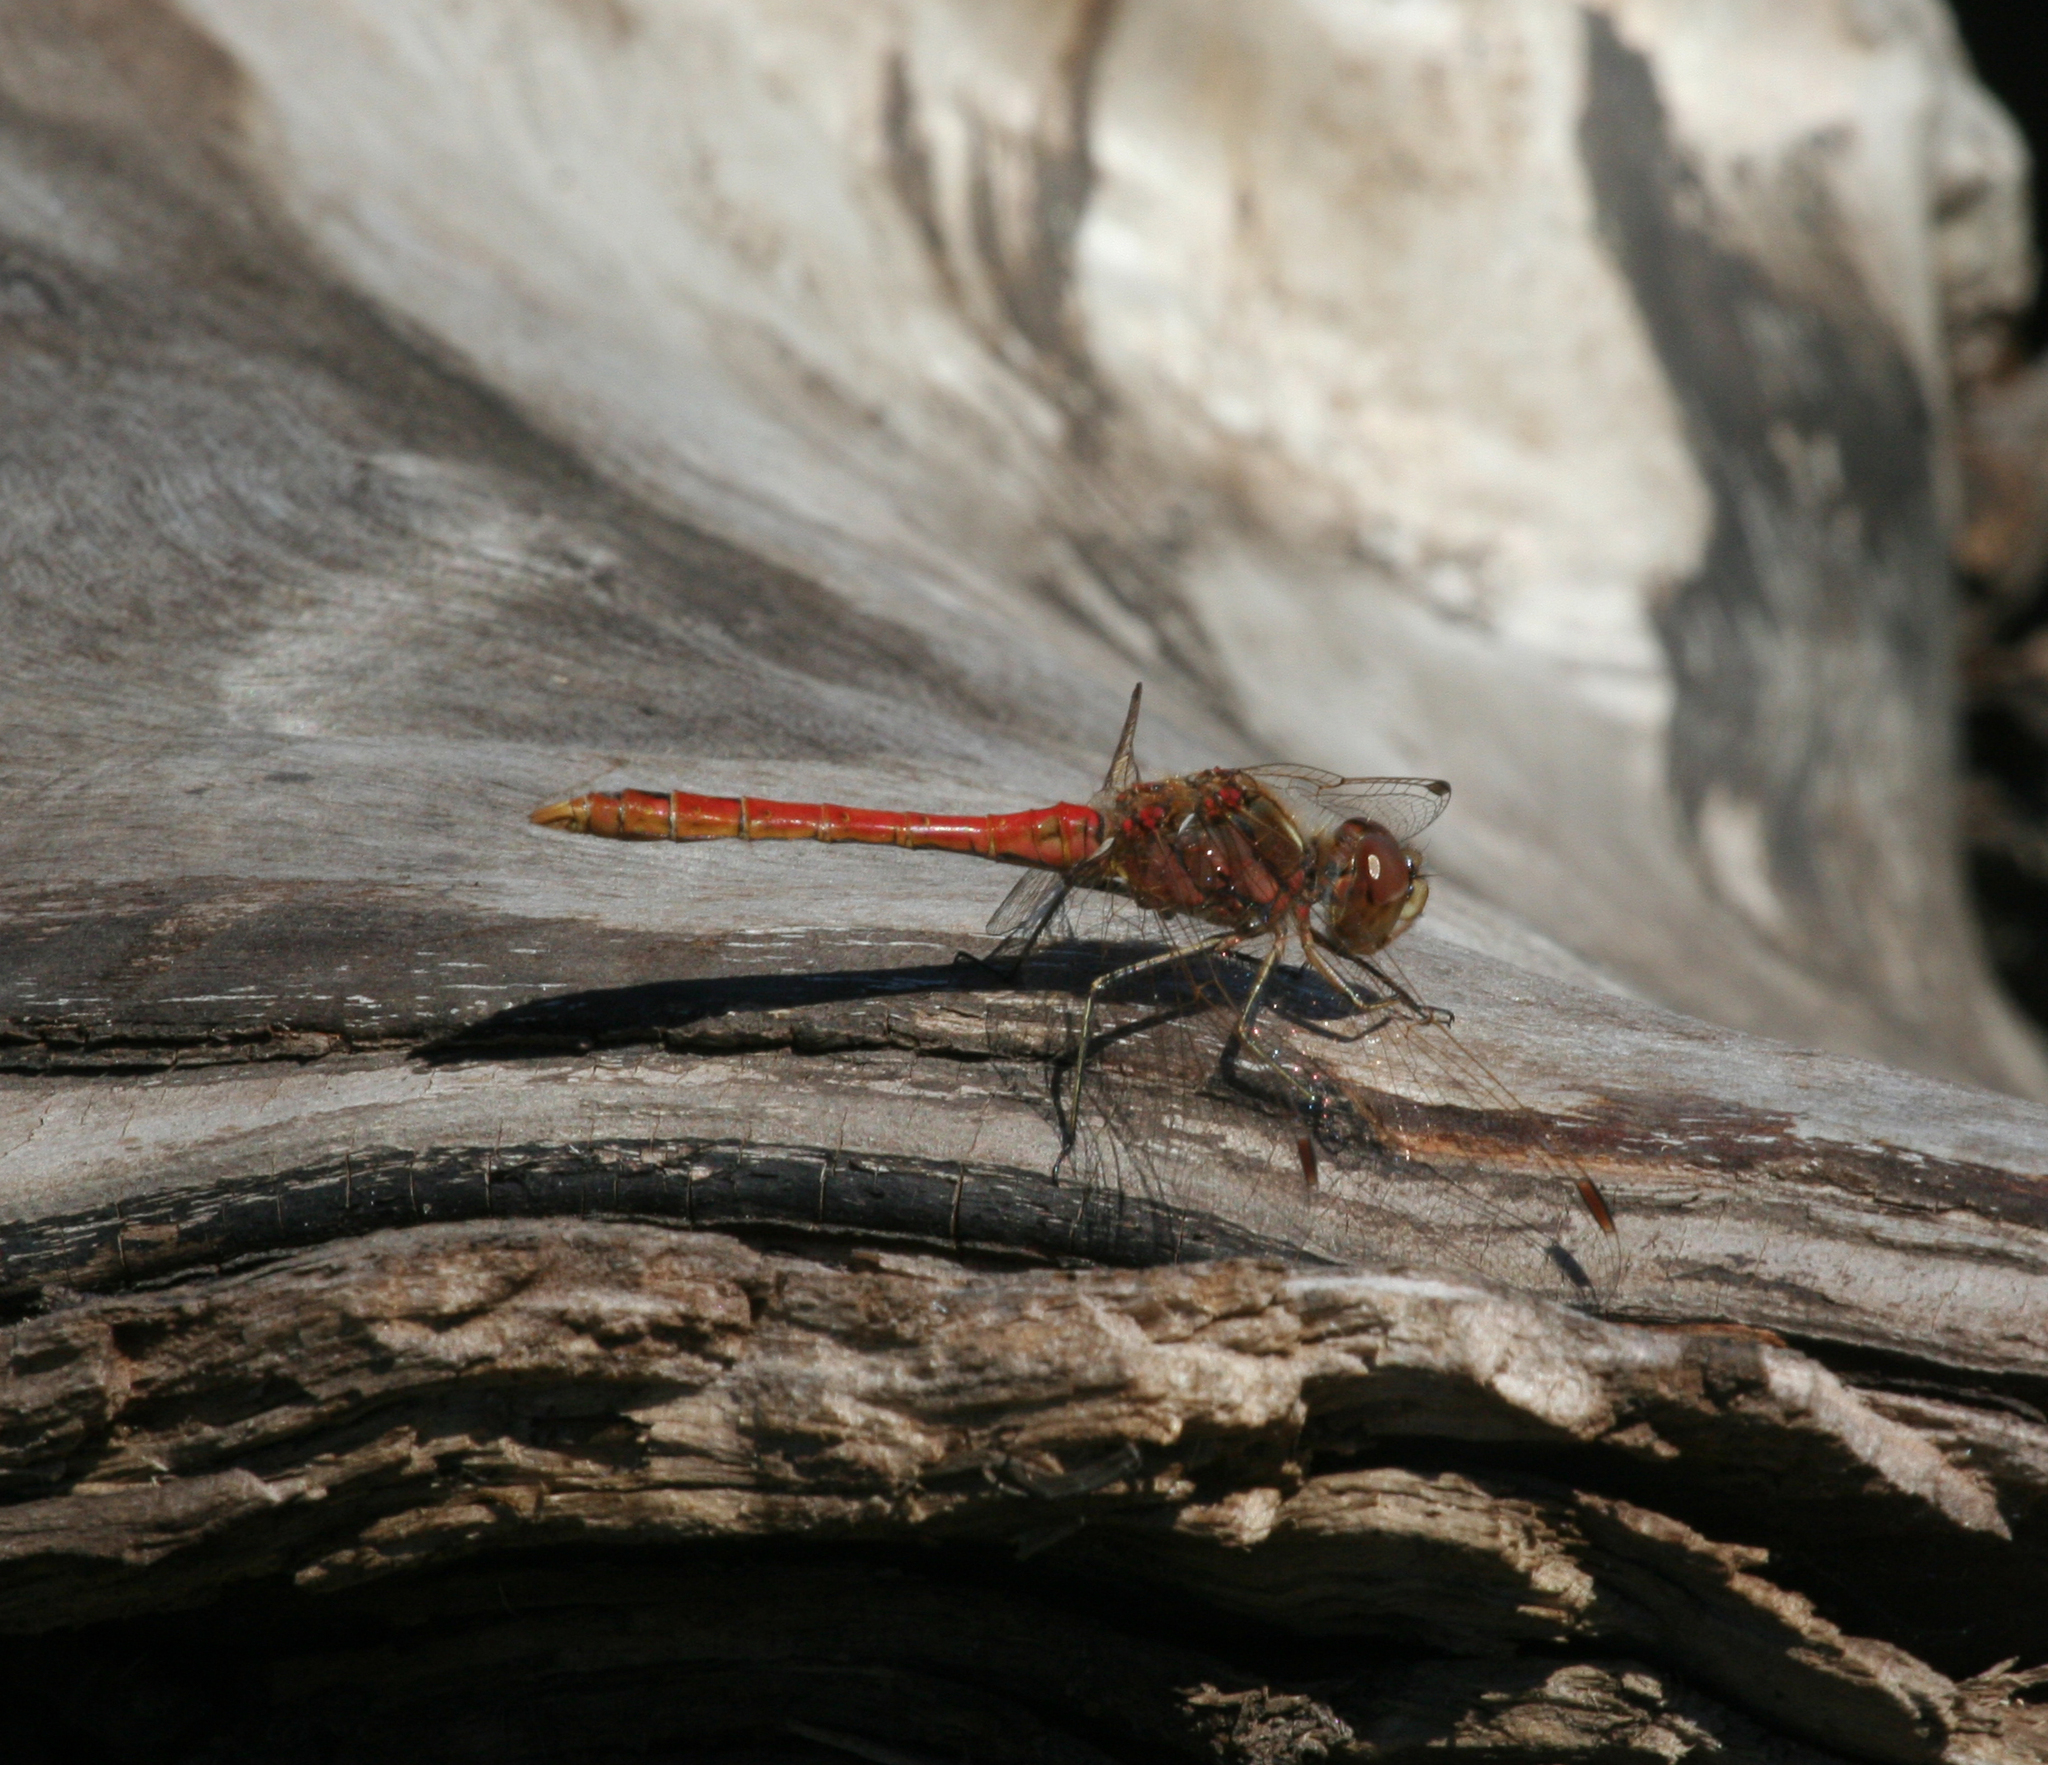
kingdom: Animalia
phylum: Arthropoda
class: Insecta
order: Odonata
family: Libellulidae
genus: Sympetrum
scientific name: Sympetrum vulgatum
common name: Vagrant darter
